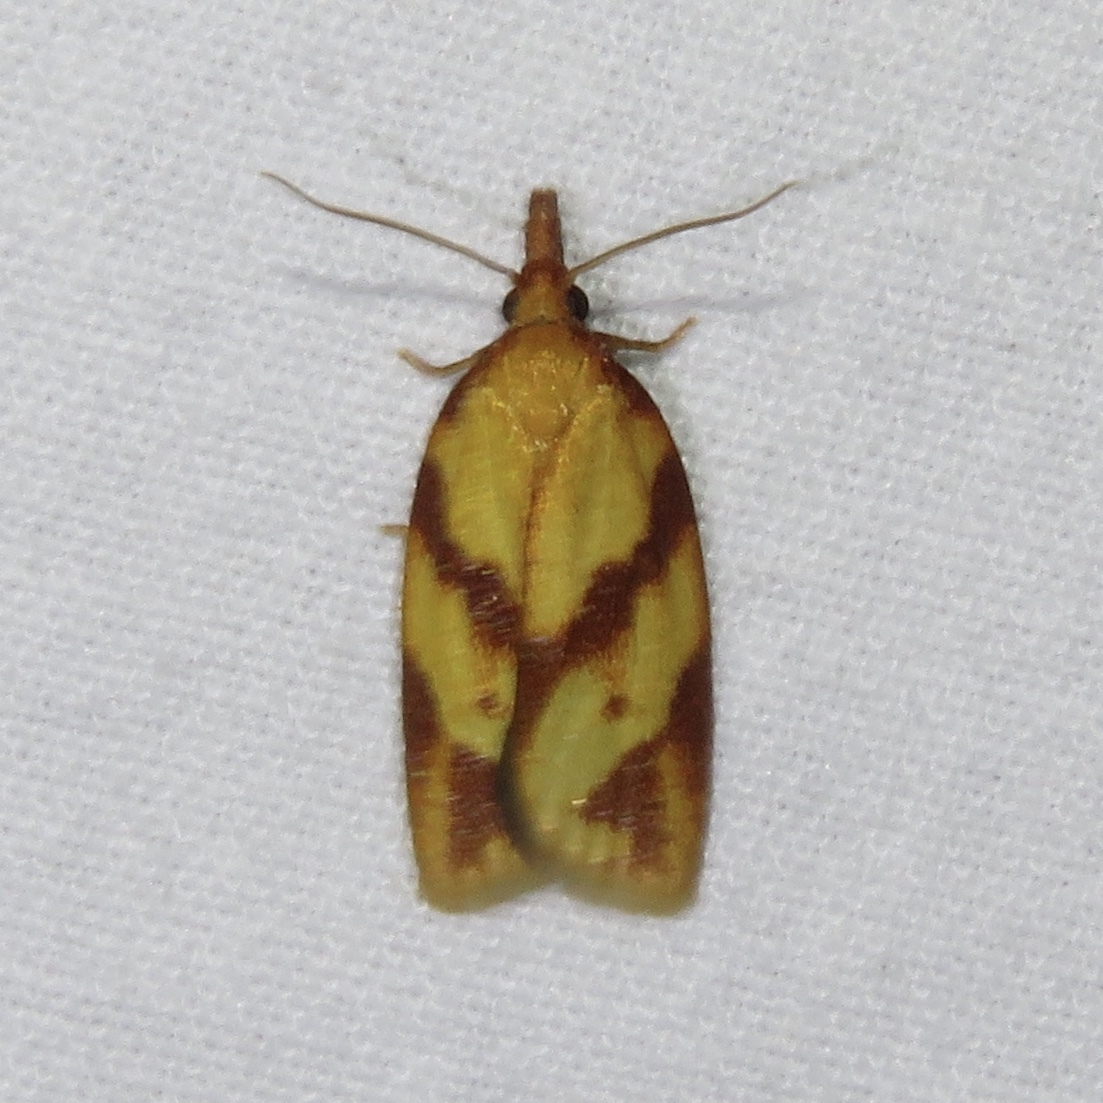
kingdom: Animalia
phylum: Arthropoda
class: Insecta
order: Lepidoptera
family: Tortricidae
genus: Sparganothis
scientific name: Sparganothis unifasciana
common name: One-lined sparganothis moth
